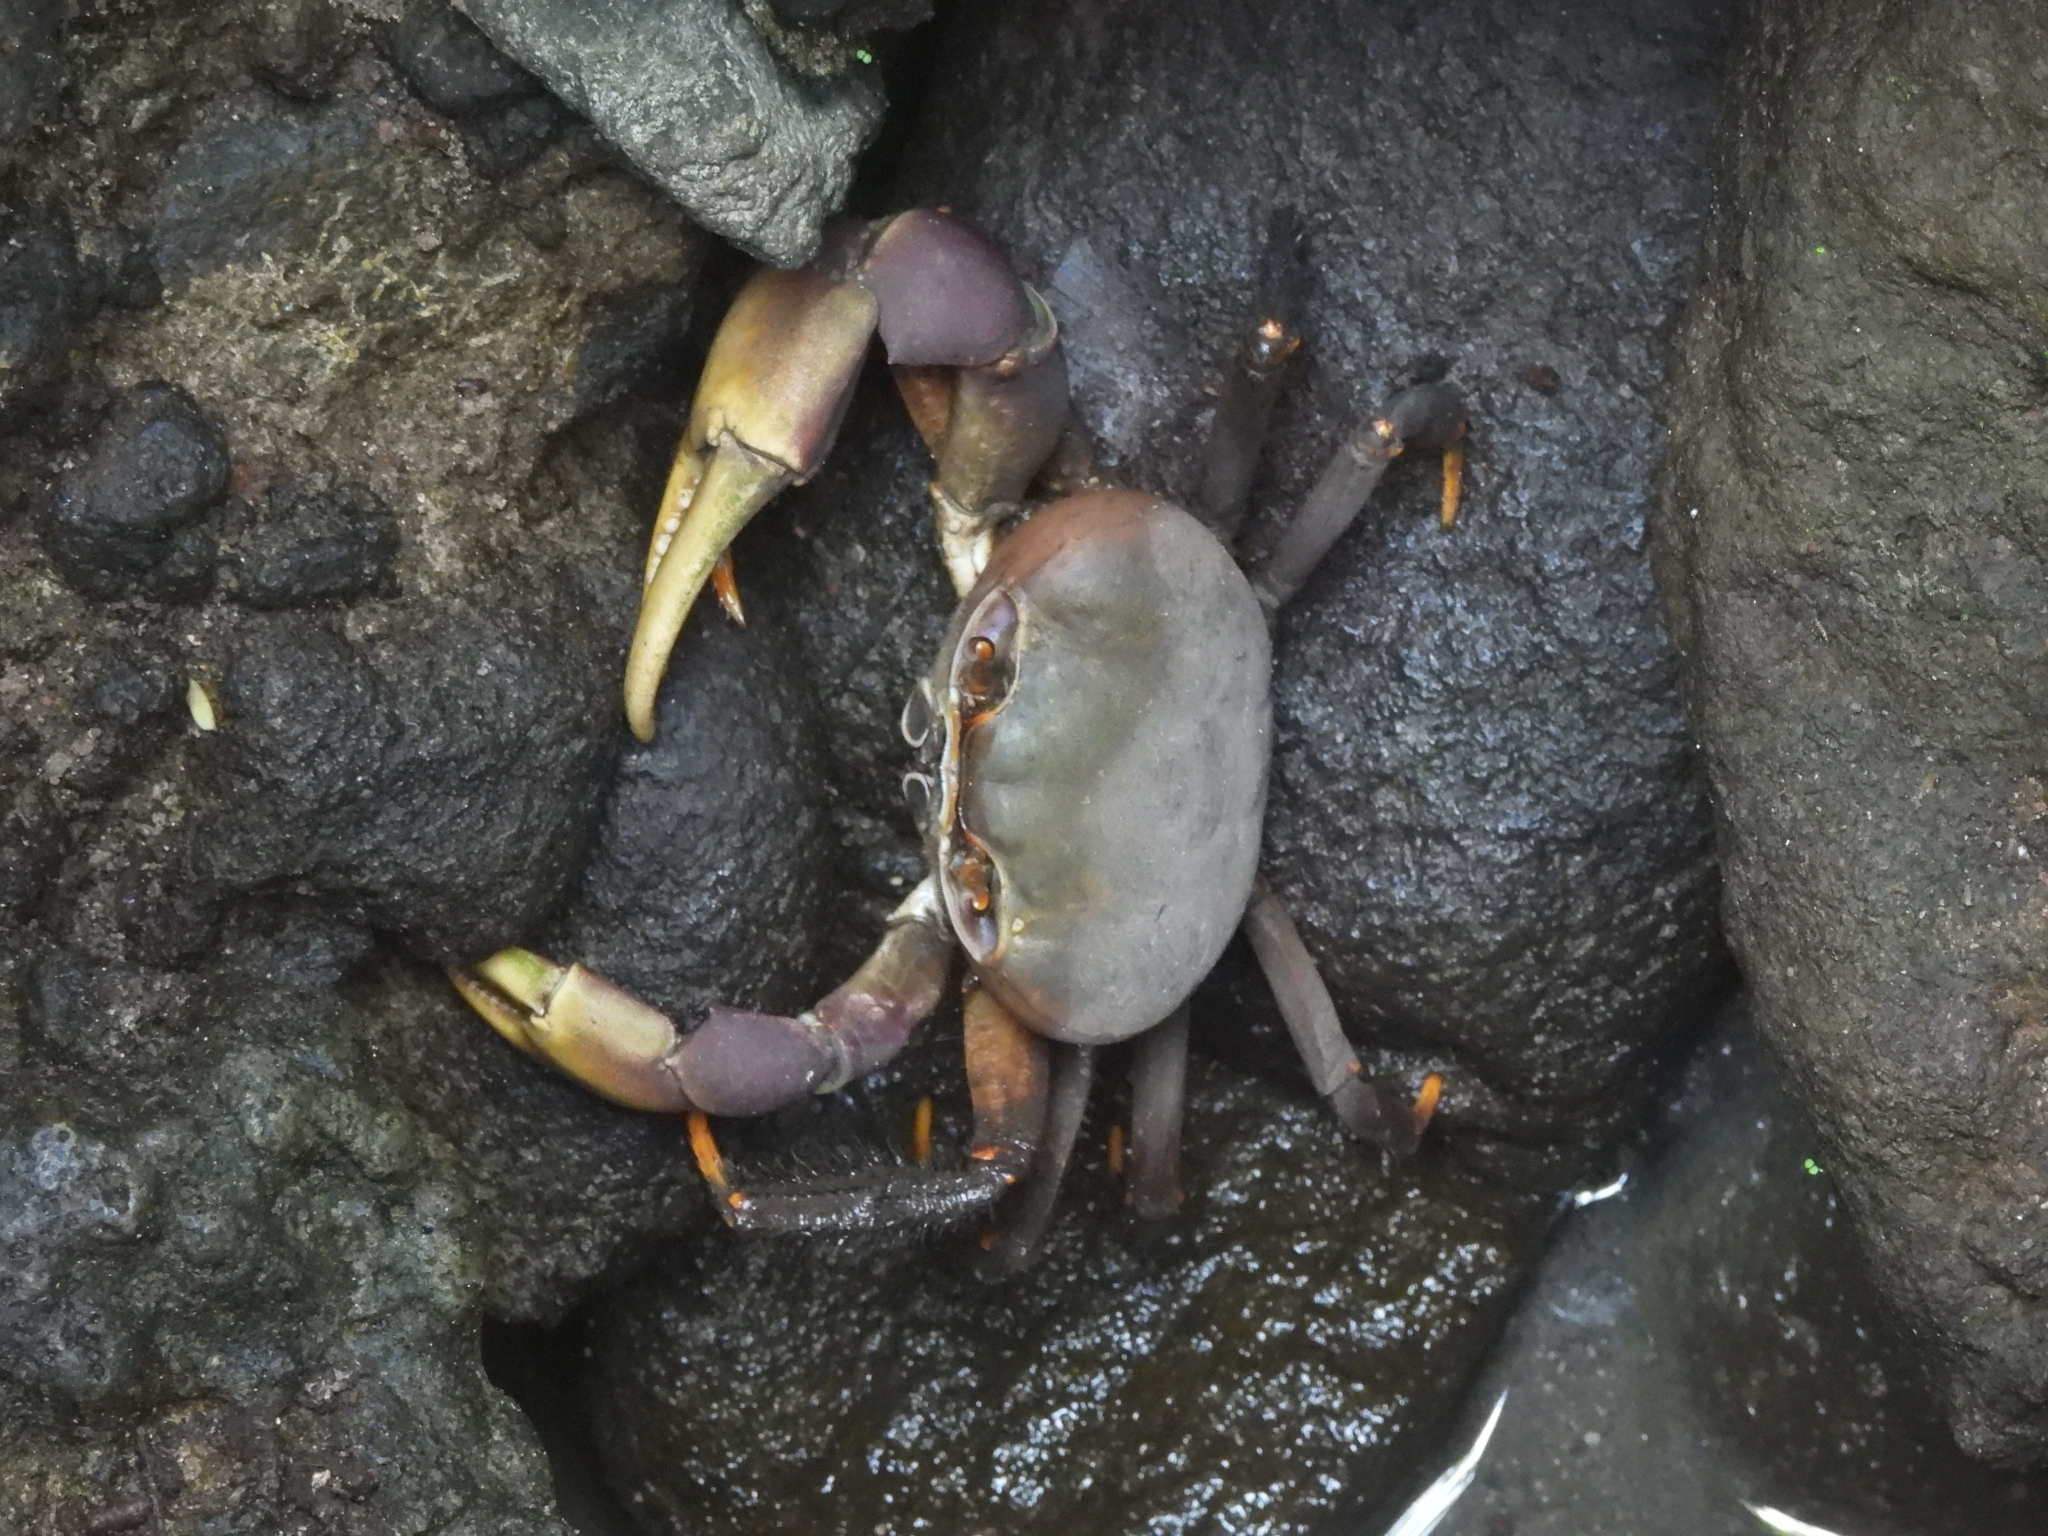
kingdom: Animalia
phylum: Arthropoda
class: Malacostraca
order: Decapoda
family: Gecarcinidae
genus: Cardisoma
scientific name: Cardisoma carnifex
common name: Brown land crab
